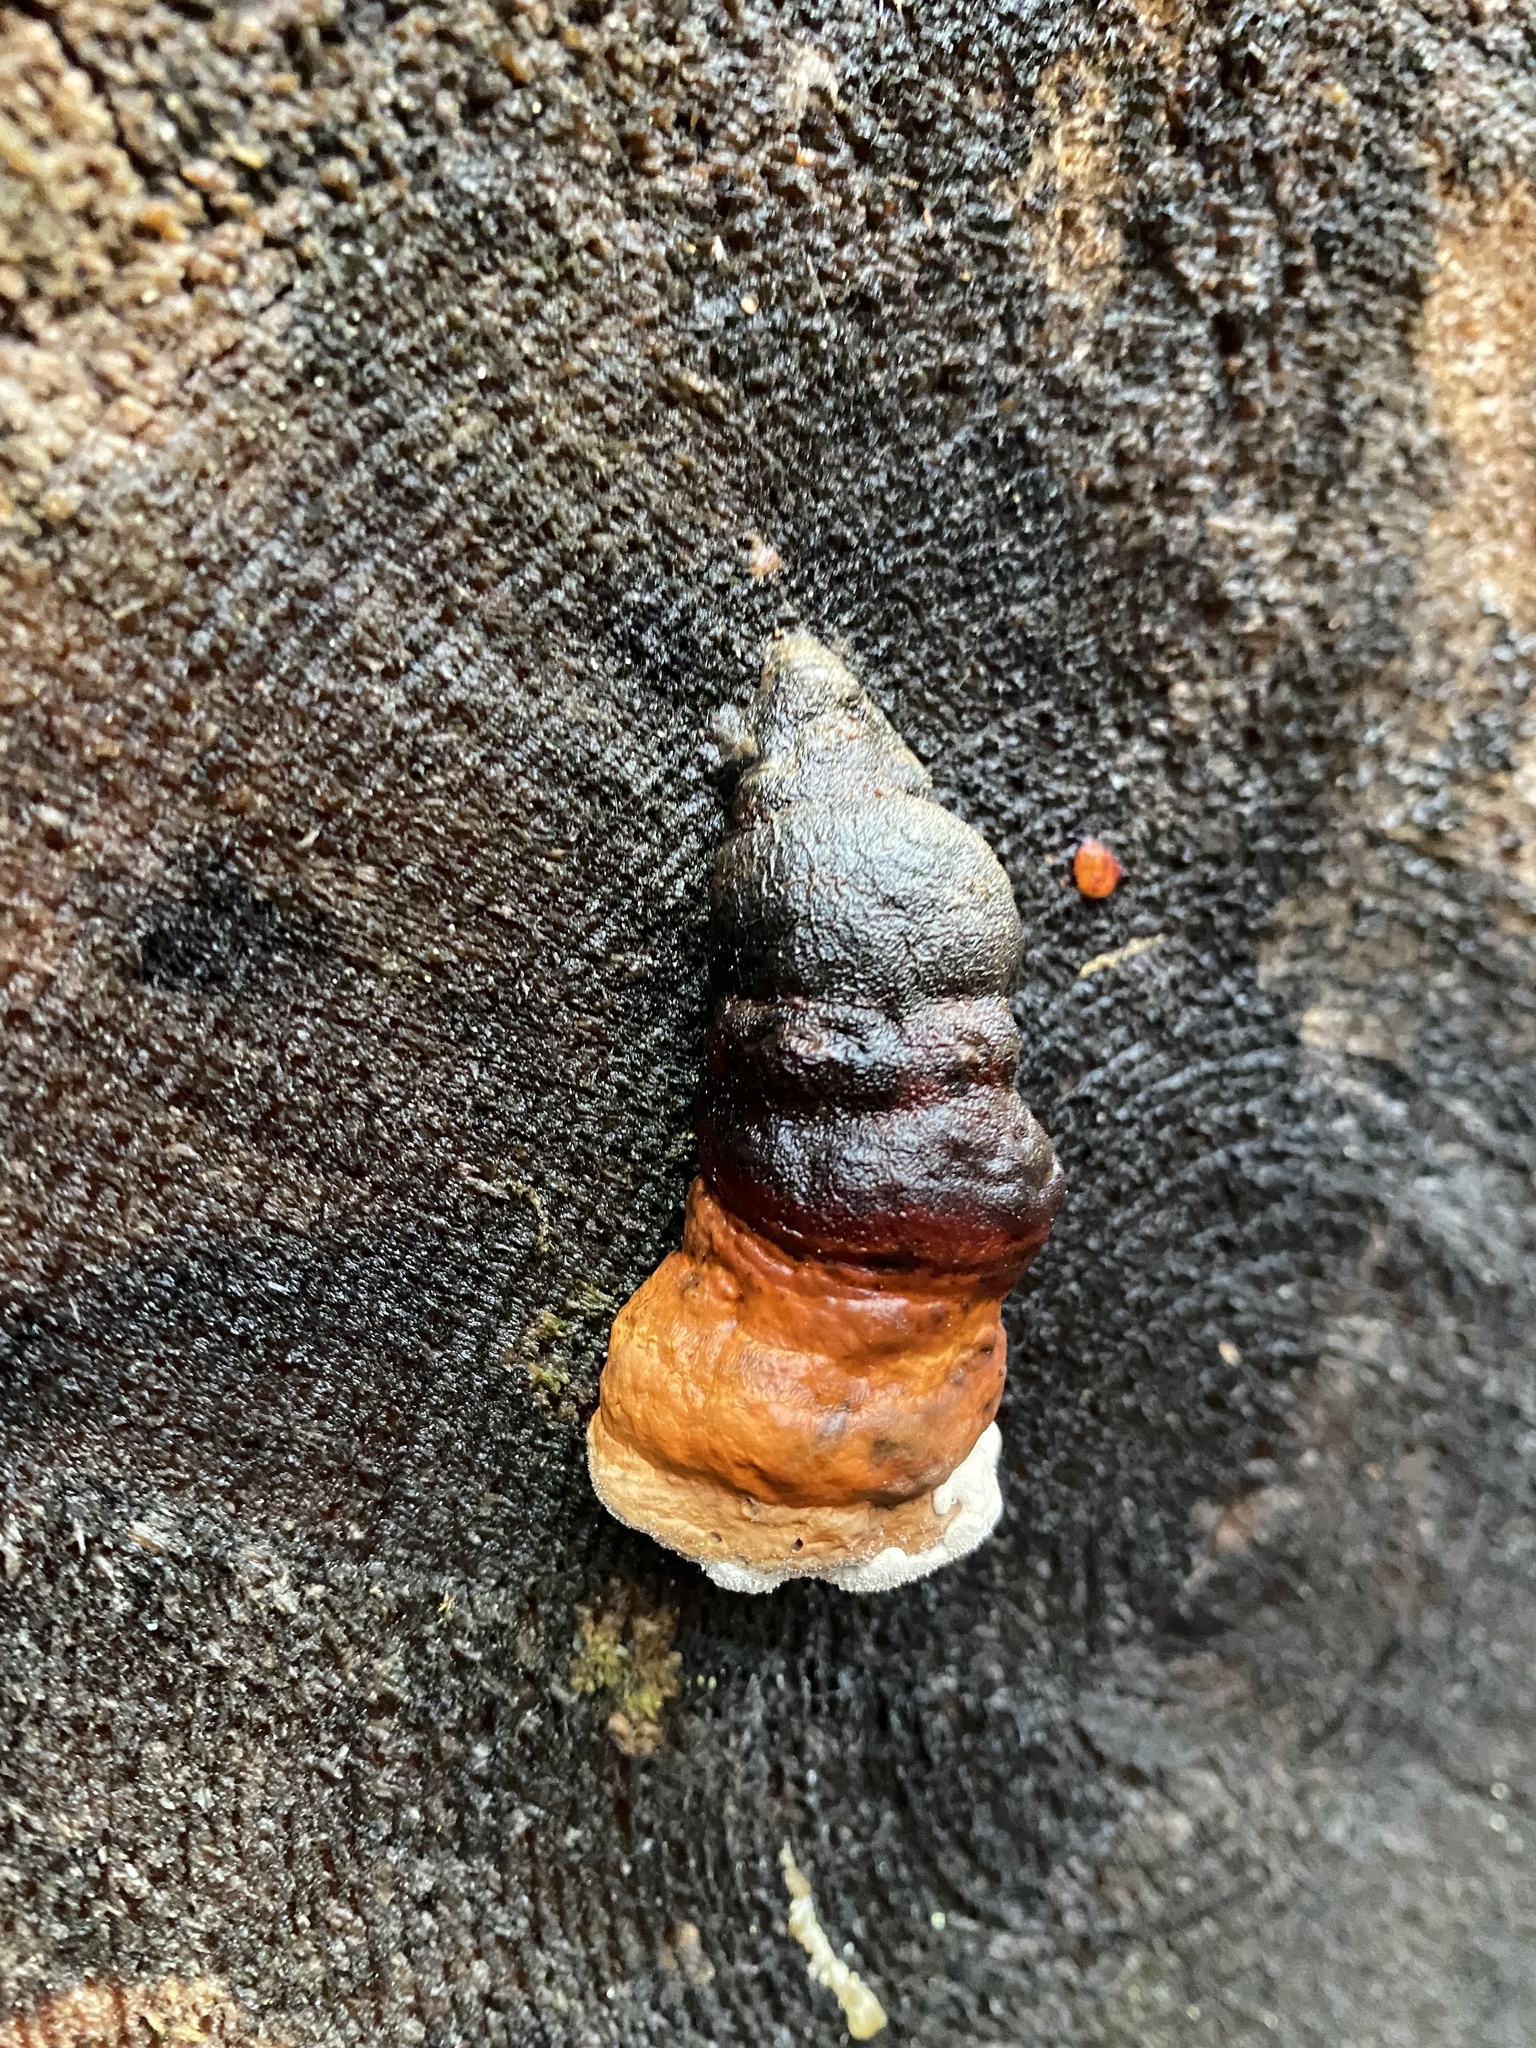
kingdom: Fungi
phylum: Basidiomycota
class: Agaricomycetes
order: Polyporales
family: Fomitopsidaceae
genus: Fomitopsis
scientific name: Fomitopsis pinicola
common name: Red-belted bracket
